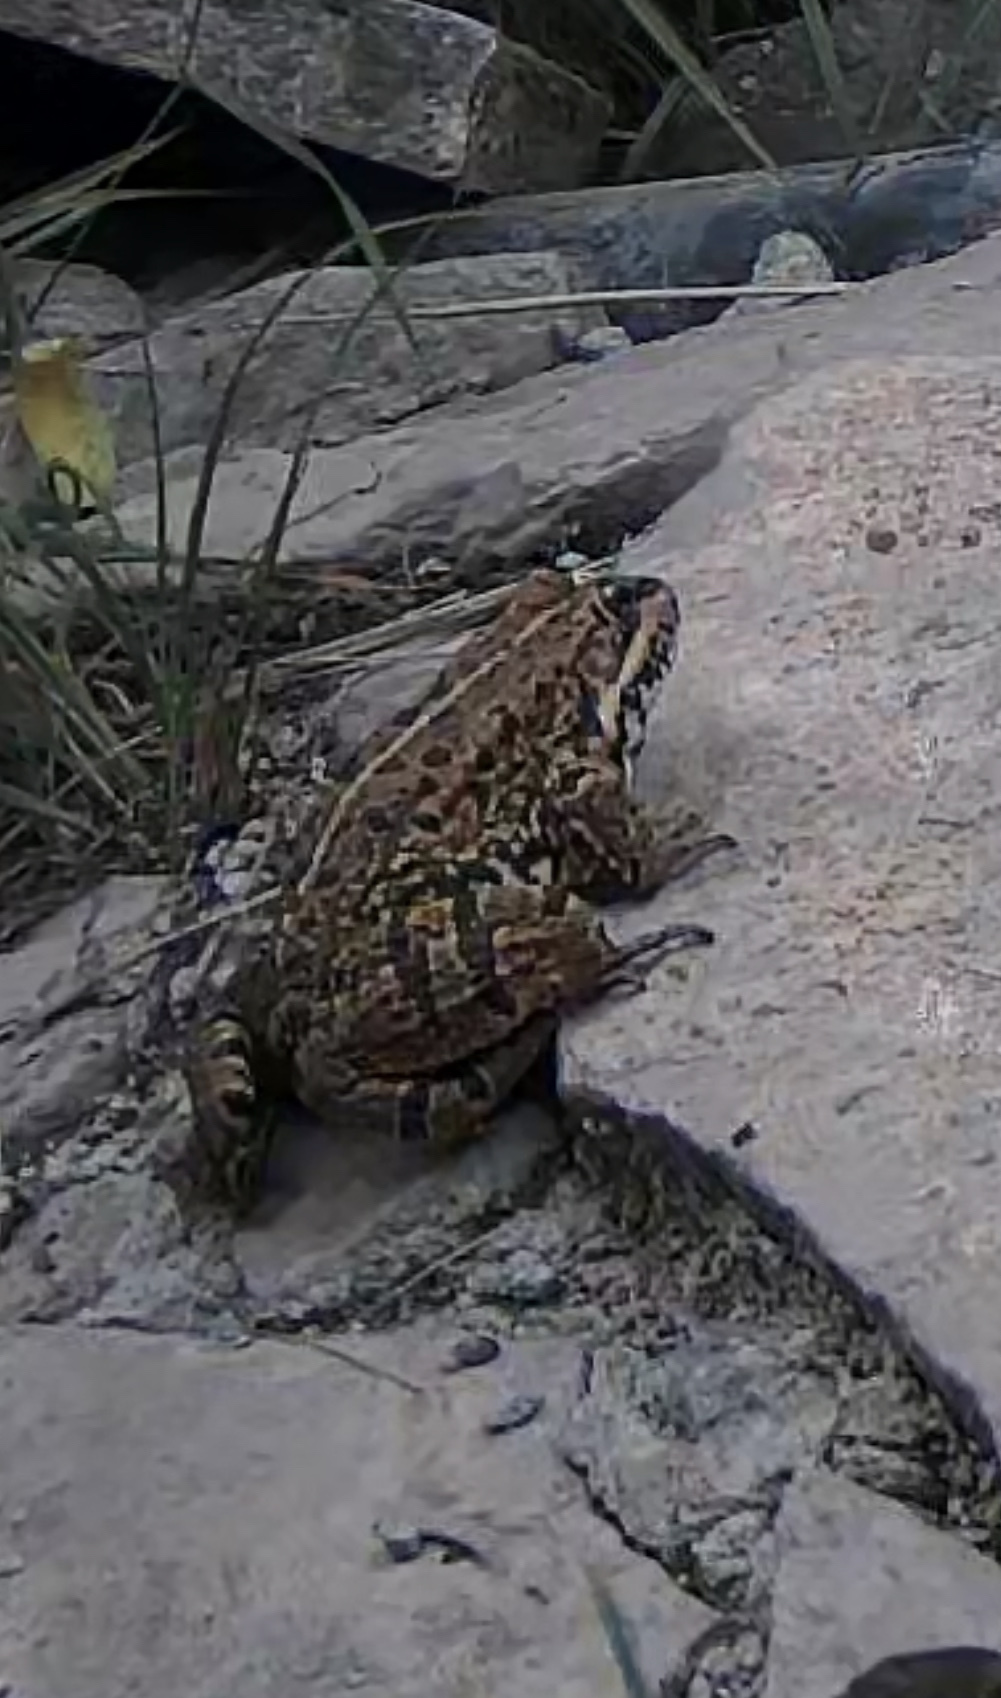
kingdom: Animalia
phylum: Chordata
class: Amphibia
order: Anura
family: Ranidae
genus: Pelophylax
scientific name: Pelophylax perezi
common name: Perez's frog
